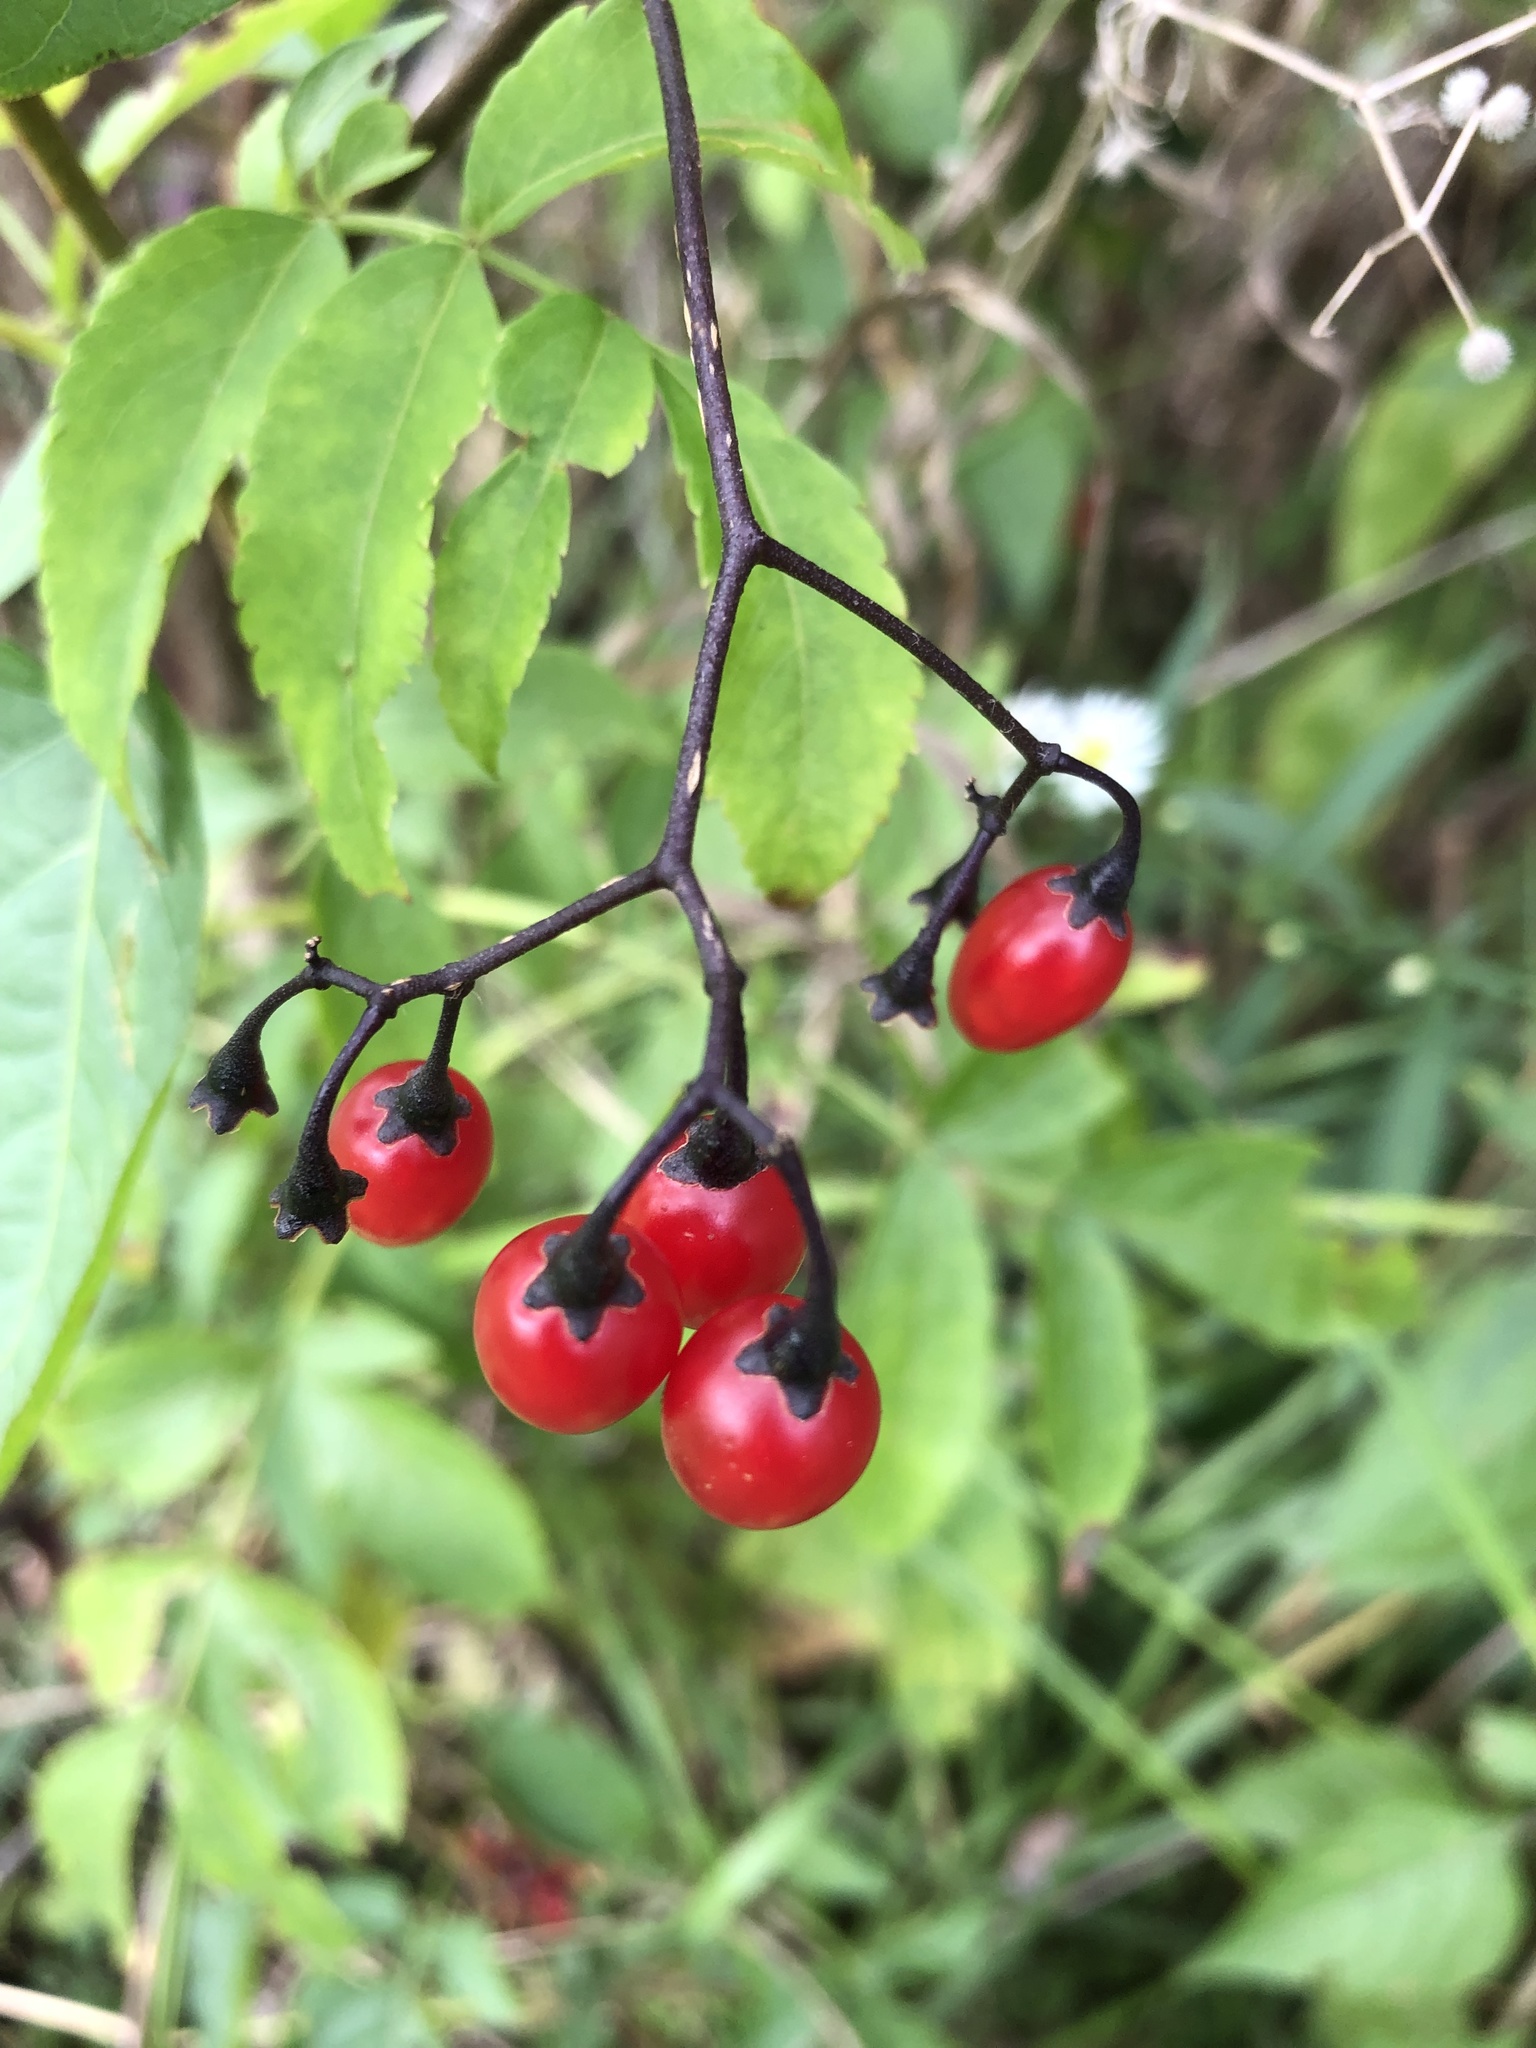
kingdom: Plantae
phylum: Tracheophyta
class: Magnoliopsida
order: Solanales
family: Solanaceae
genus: Solanum
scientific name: Solanum dulcamara
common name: Climbing nightshade
